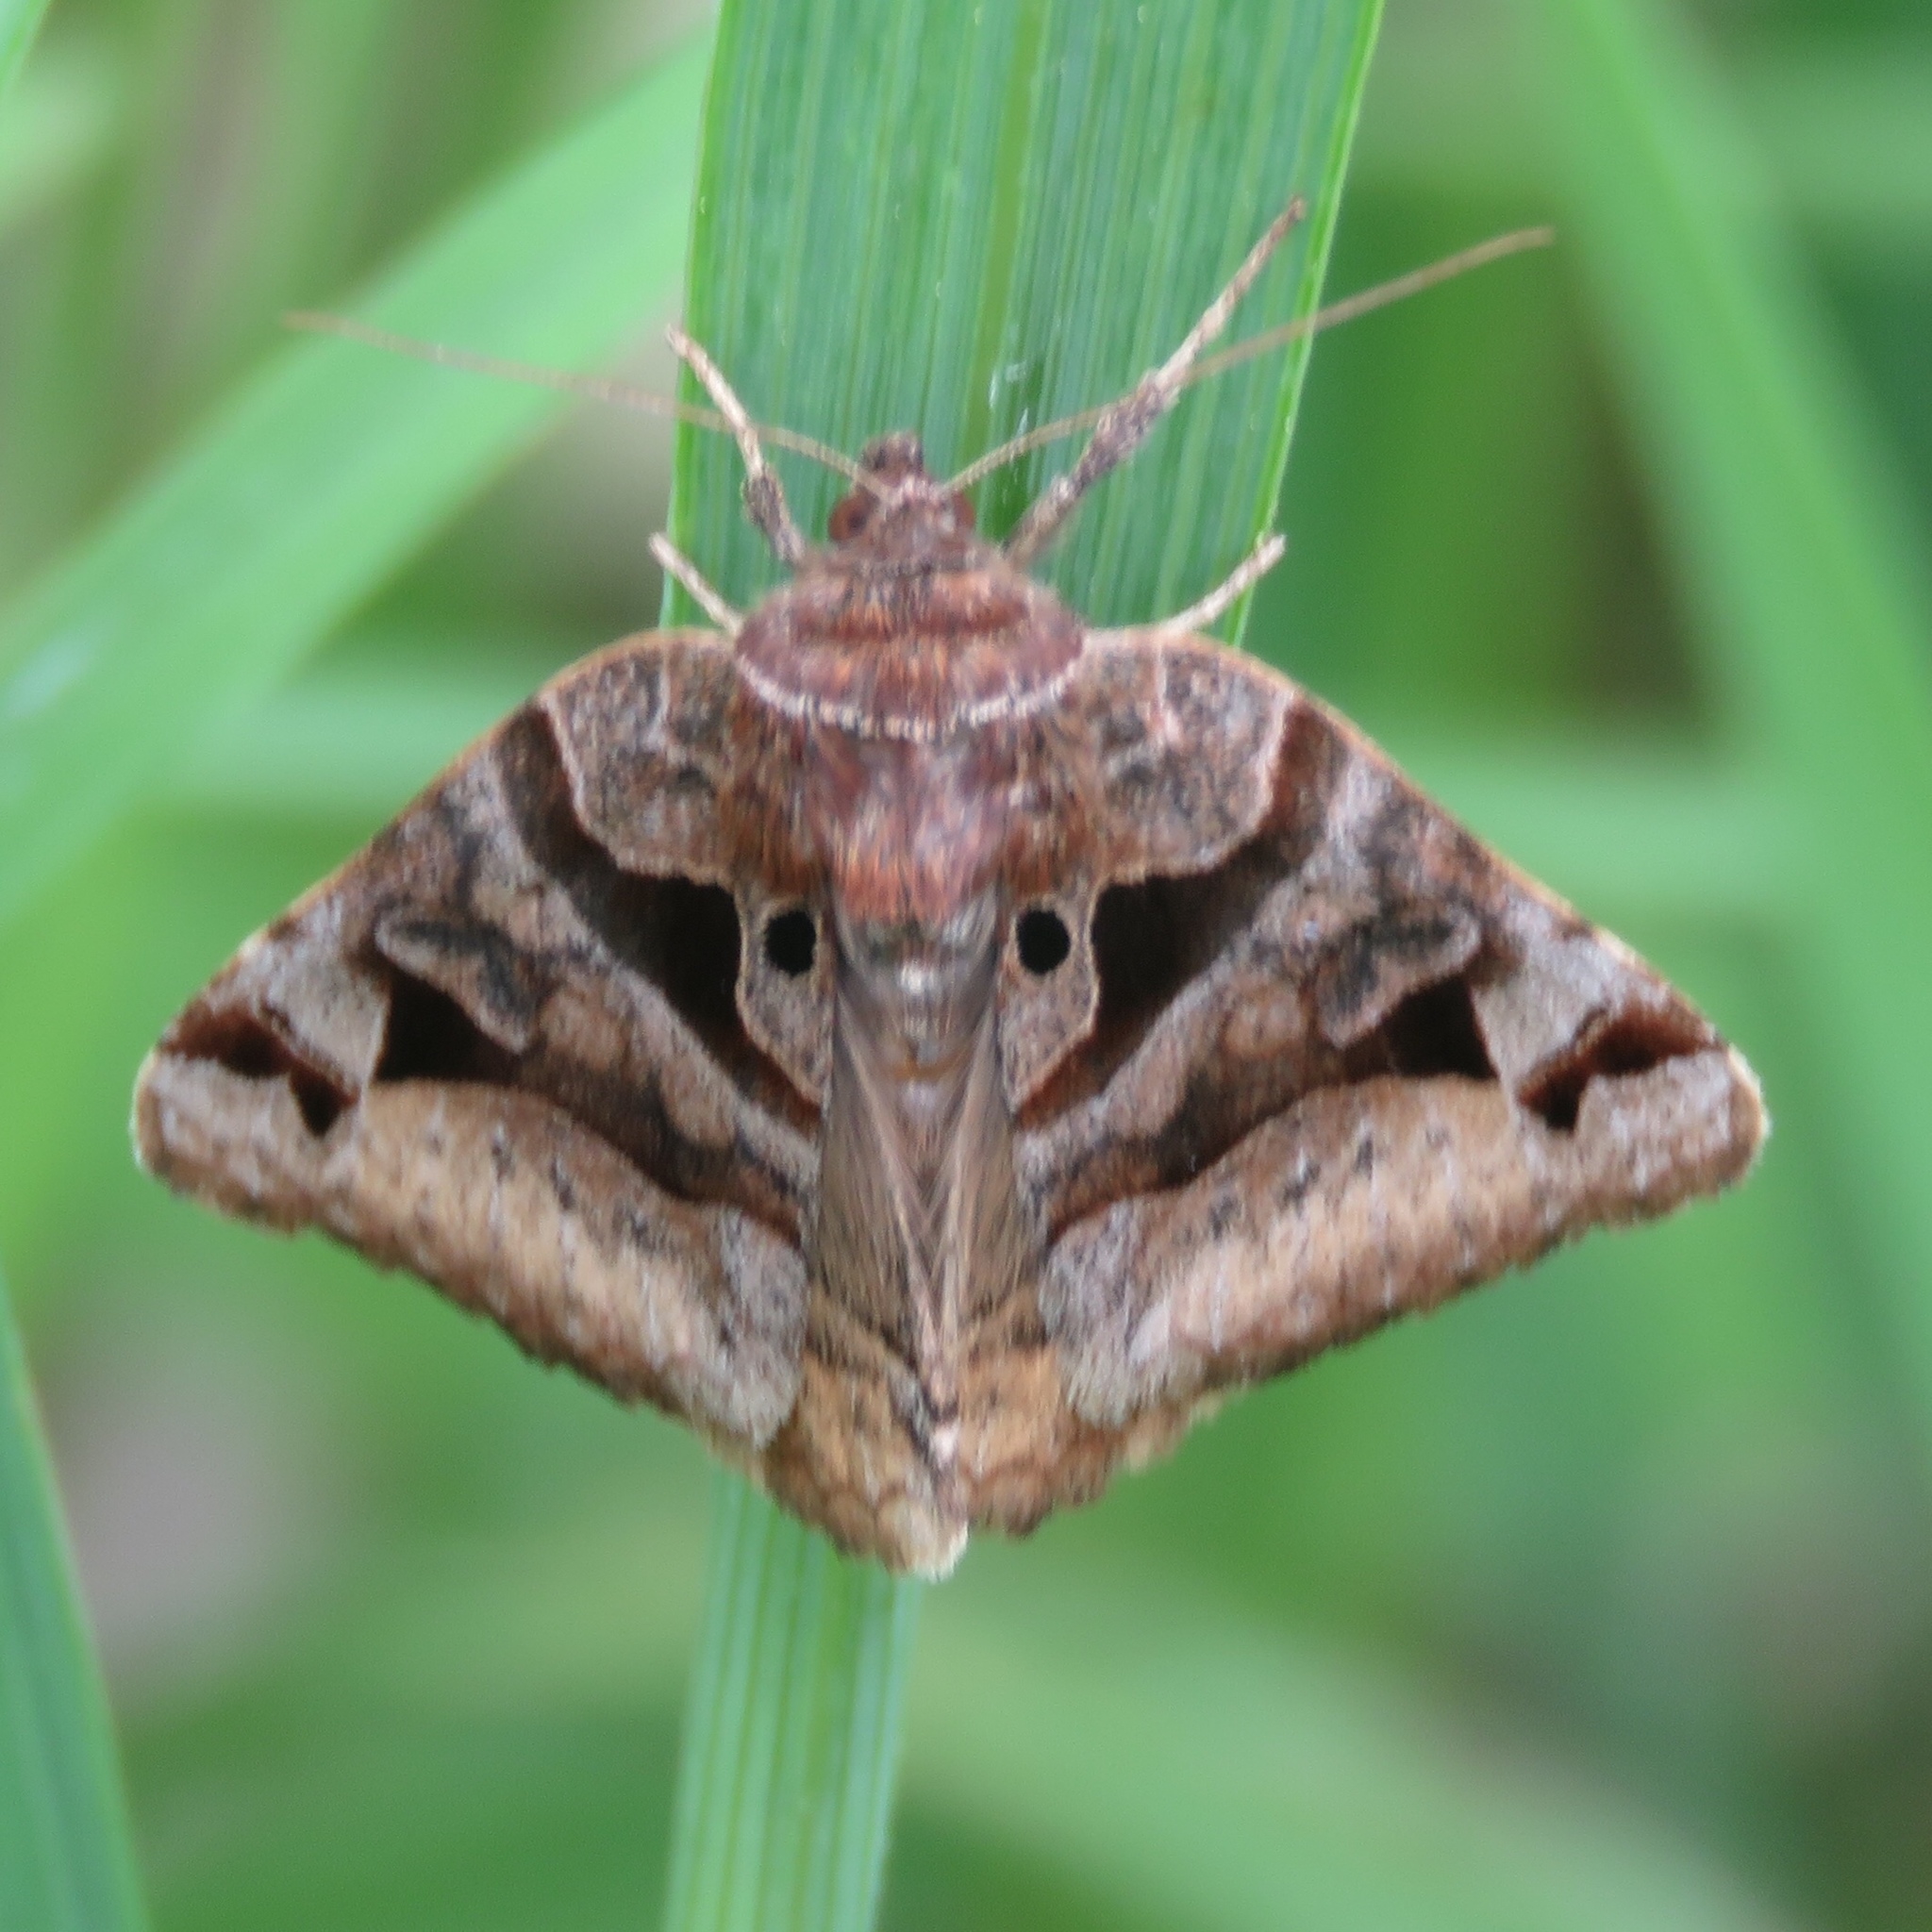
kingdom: Animalia
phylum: Arthropoda
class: Insecta
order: Lepidoptera
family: Erebidae
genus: Euclidia
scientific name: Euclidia cuspidea
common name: Toothed somberwing
